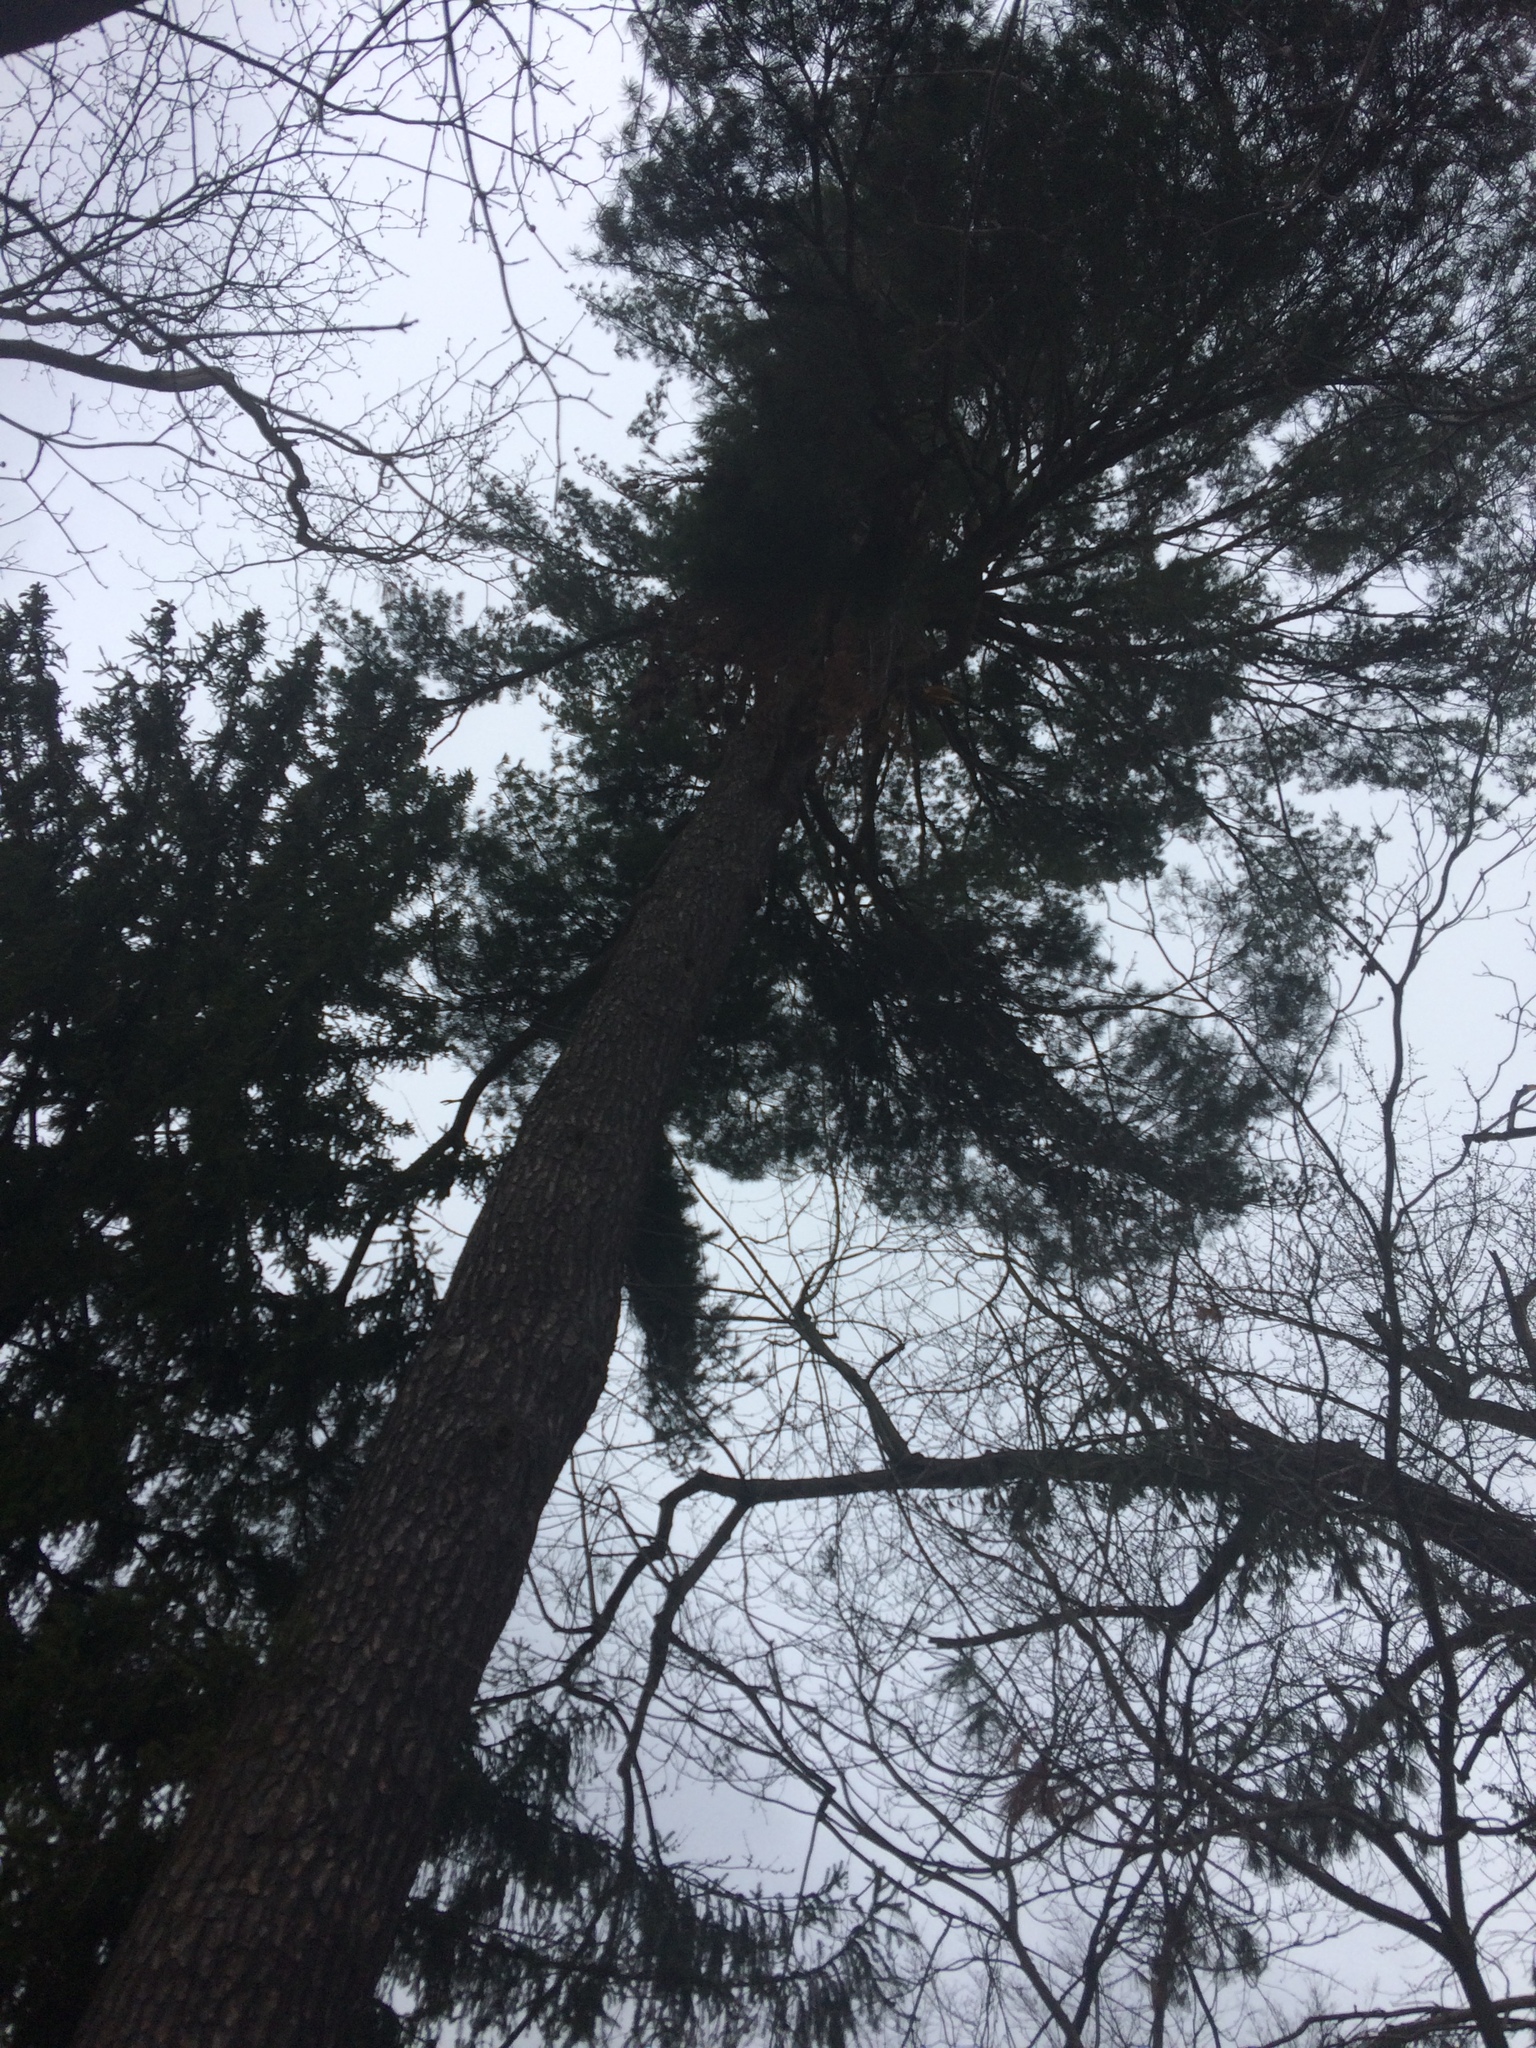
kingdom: Plantae
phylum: Tracheophyta
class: Pinopsida
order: Pinales
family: Pinaceae
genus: Pinus
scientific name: Pinus strobus
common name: Weymouth pine
